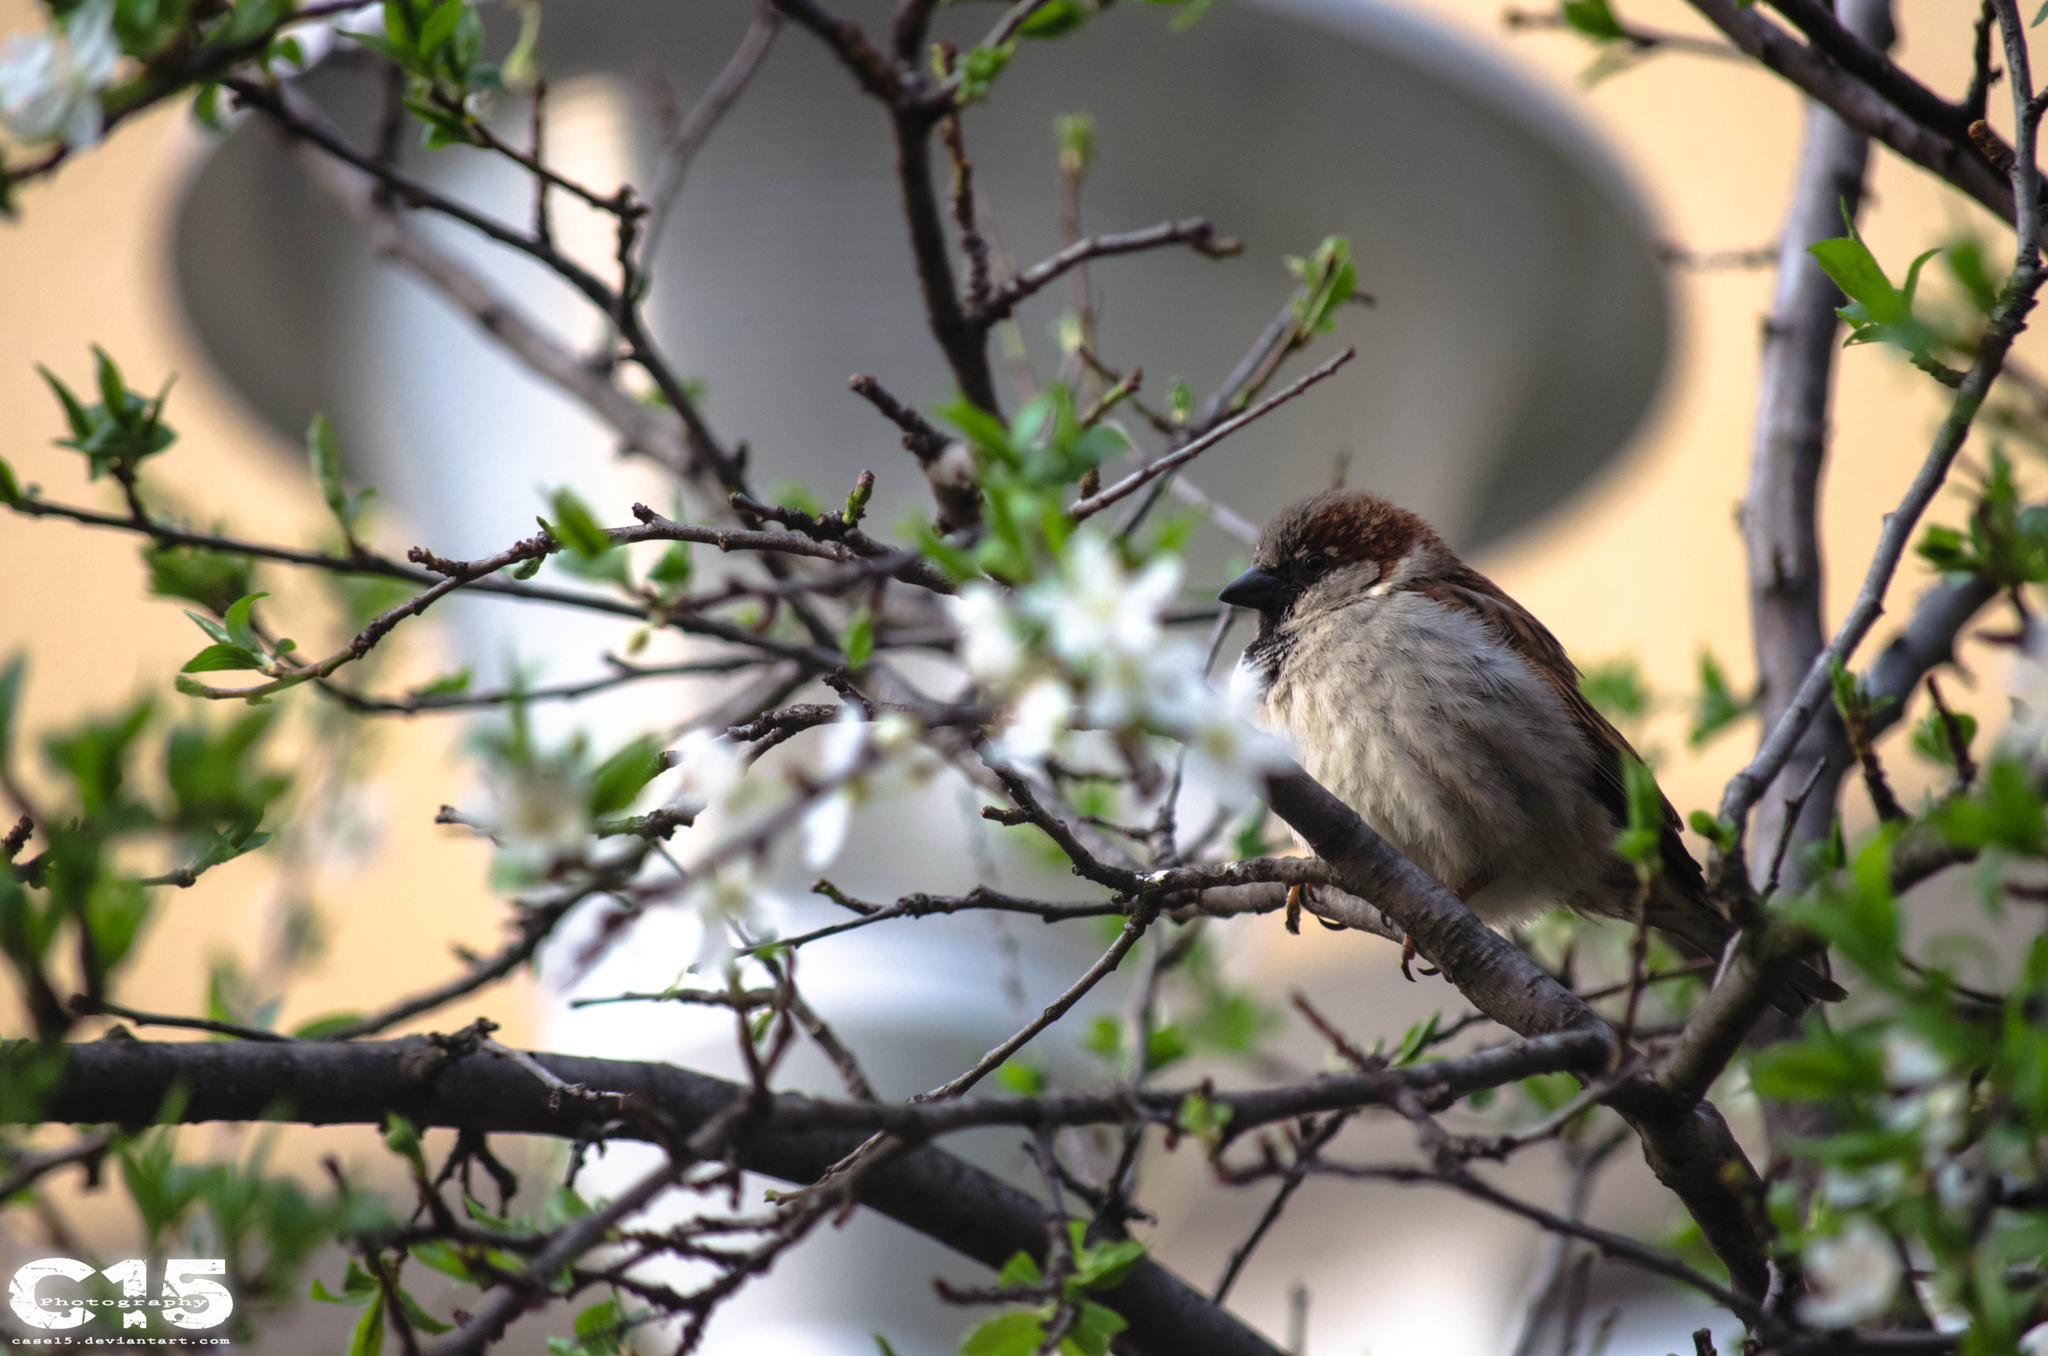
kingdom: Animalia
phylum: Chordata
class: Aves
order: Passeriformes
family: Passeridae
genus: Passer
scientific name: Passer domesticus
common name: House sparrow
